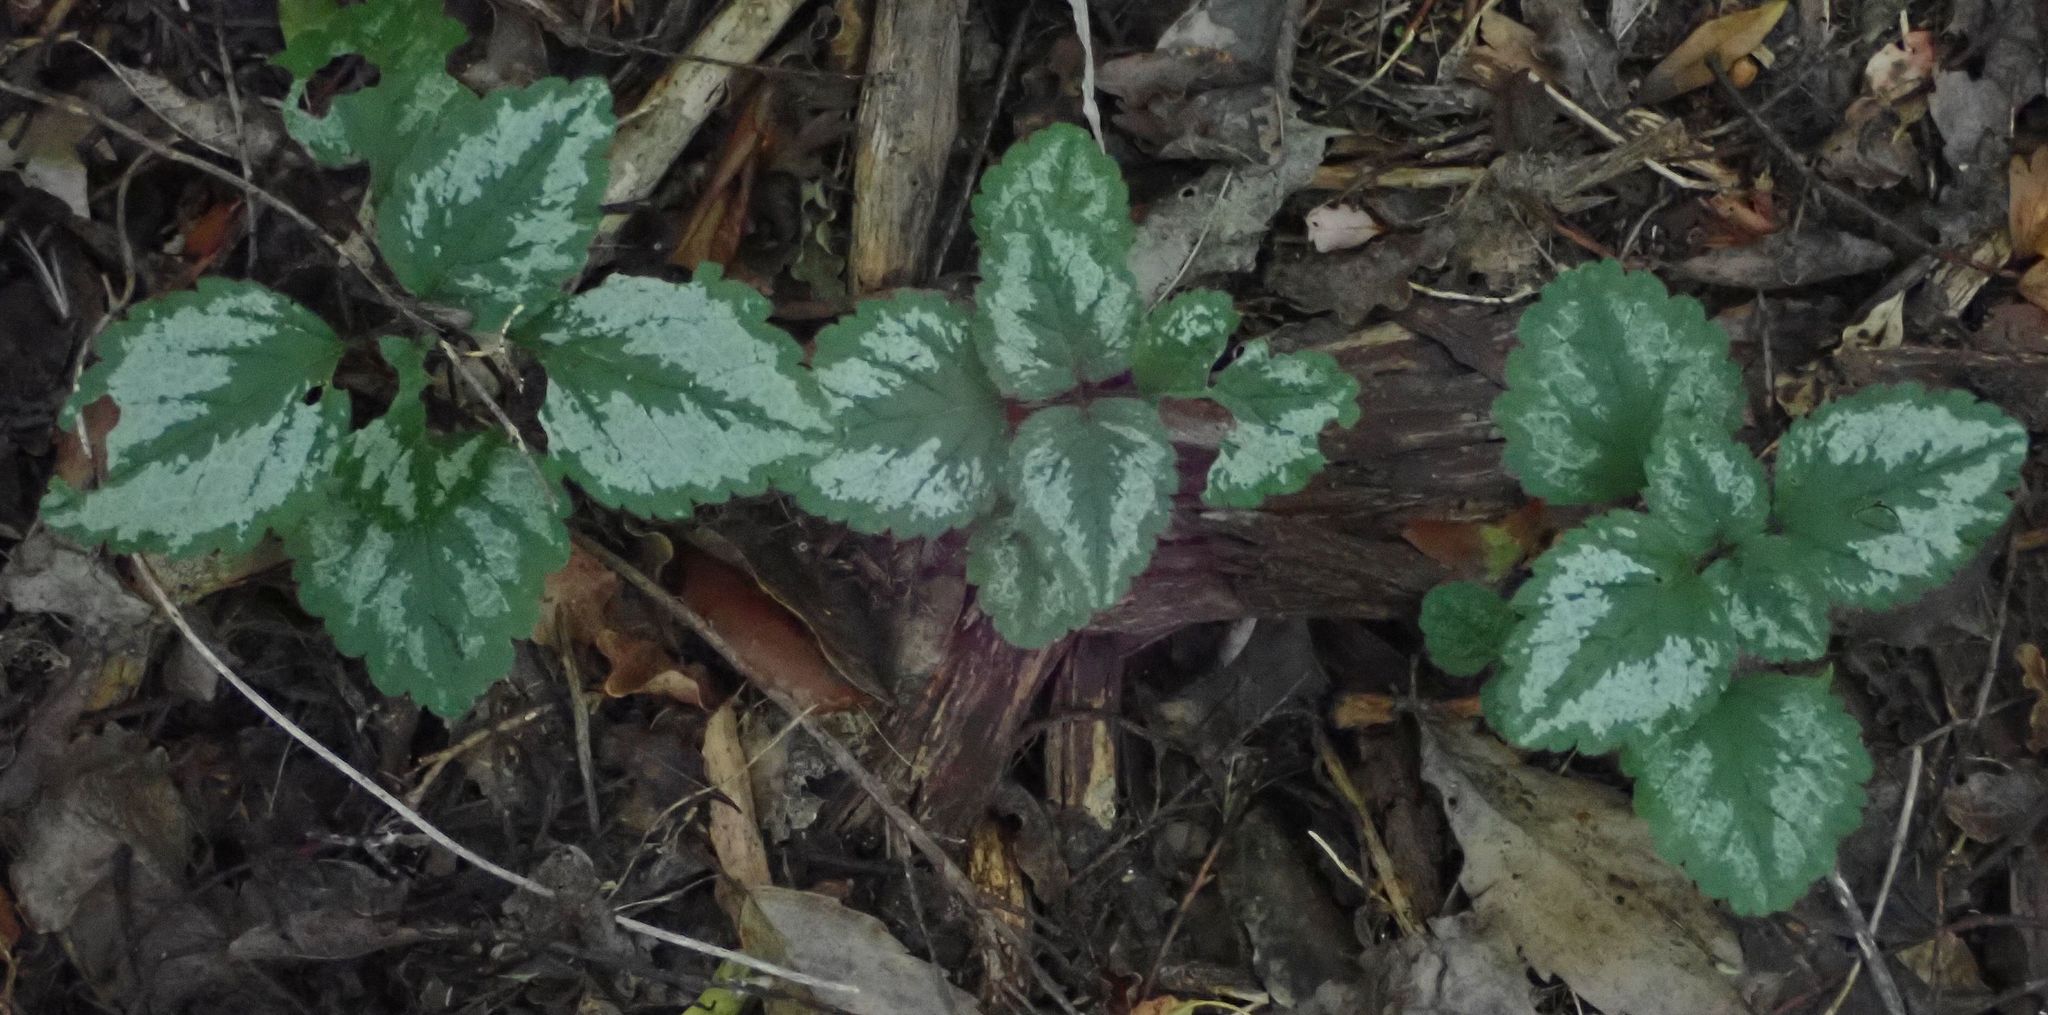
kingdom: Plantae
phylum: Tracheophyta
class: Magnoliopsida
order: Lamiales
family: Lamiaceae
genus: Lamium
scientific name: Lamium galeobdolon
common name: Yellow archangel
